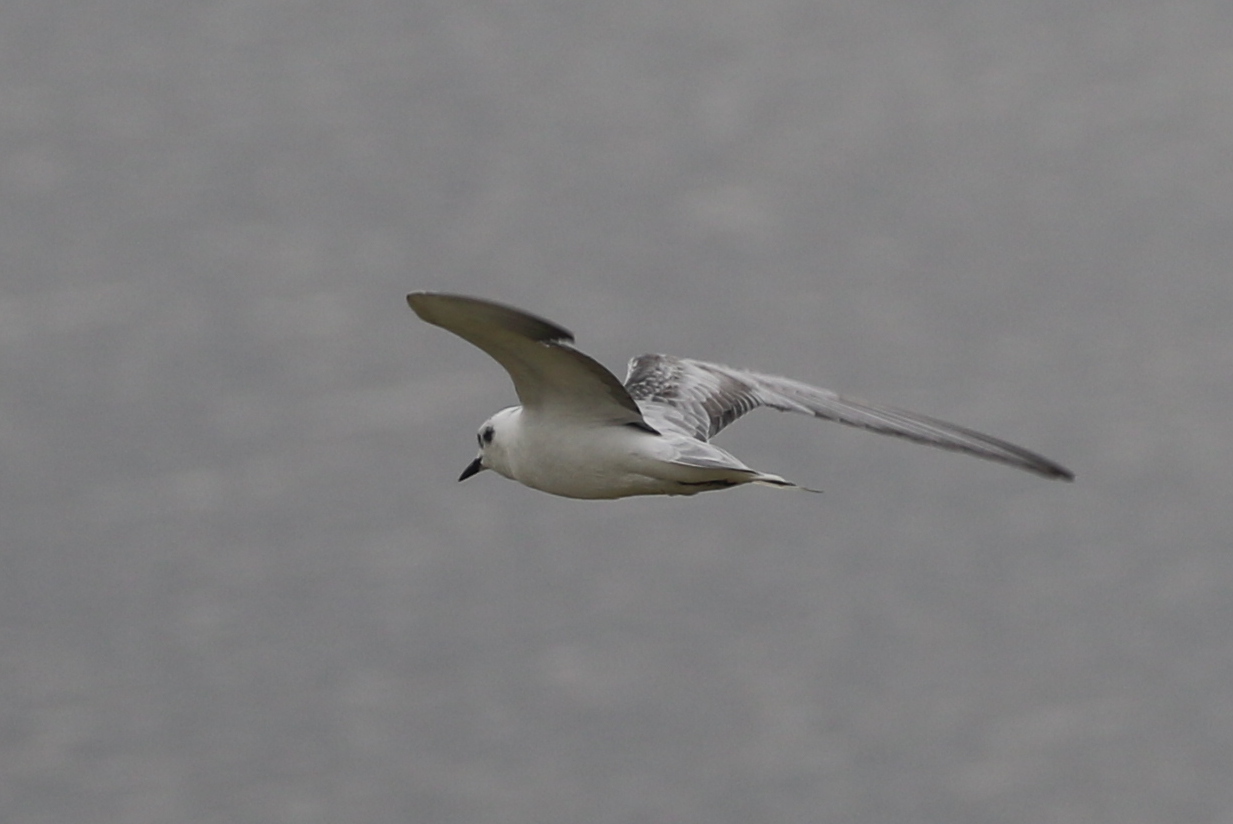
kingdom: Animalia
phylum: Chordata
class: Aves
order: Charadriiformes
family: Laridae
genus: Chlidonias
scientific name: Chlidonias leucopterus
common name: White-winged tern
